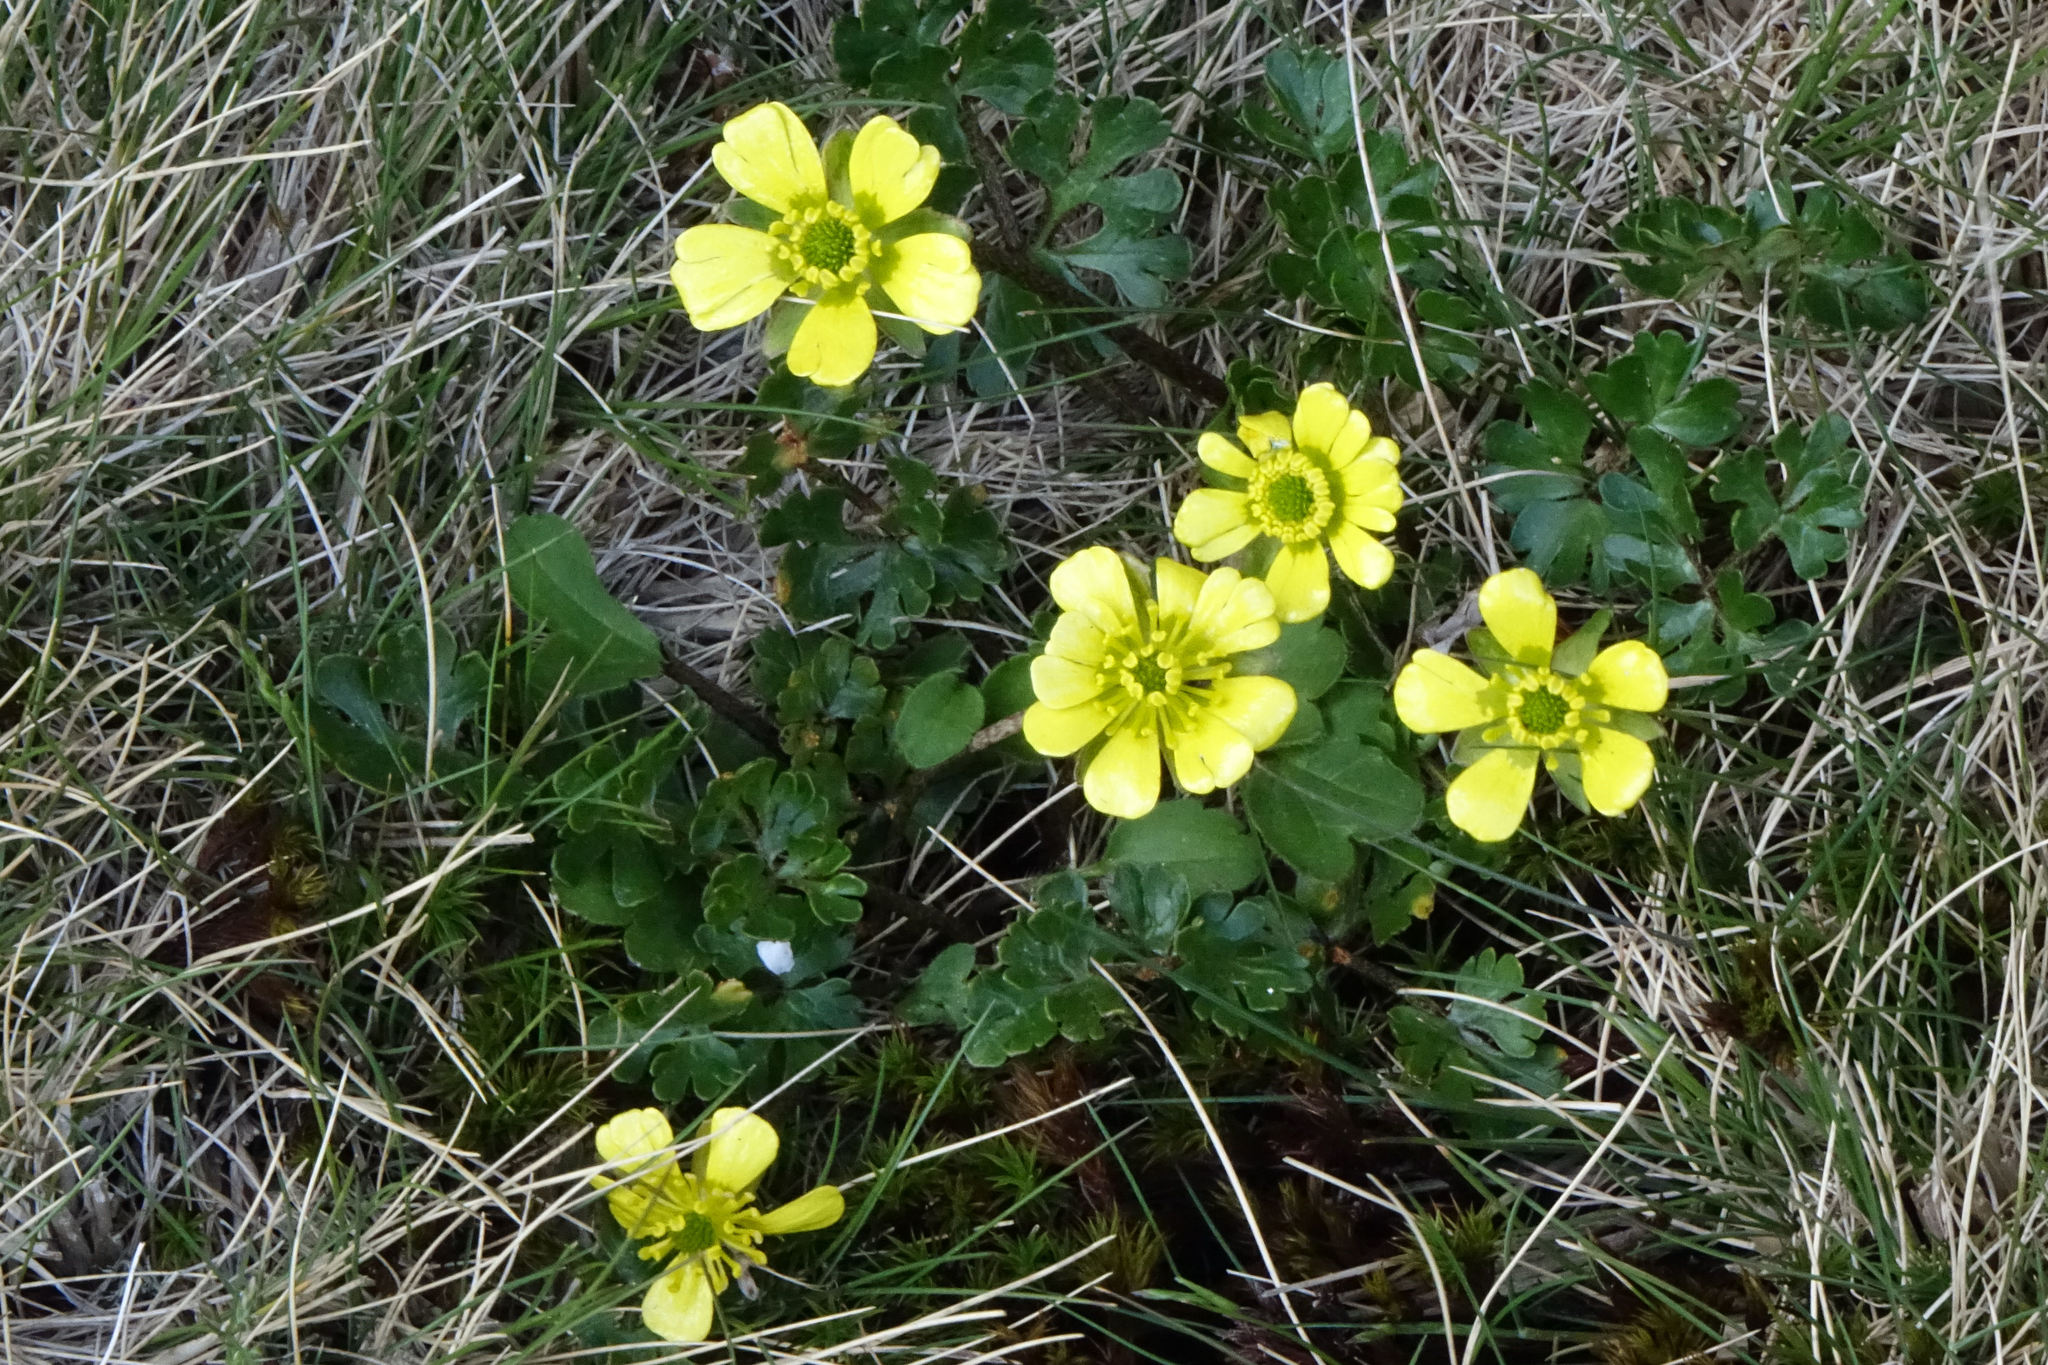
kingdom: Plantae
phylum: Tracheophyta
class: Magnoliopsida
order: Ranunculales
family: Ranunculaceae
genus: Ranunculus
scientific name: Ranunculus enysii
